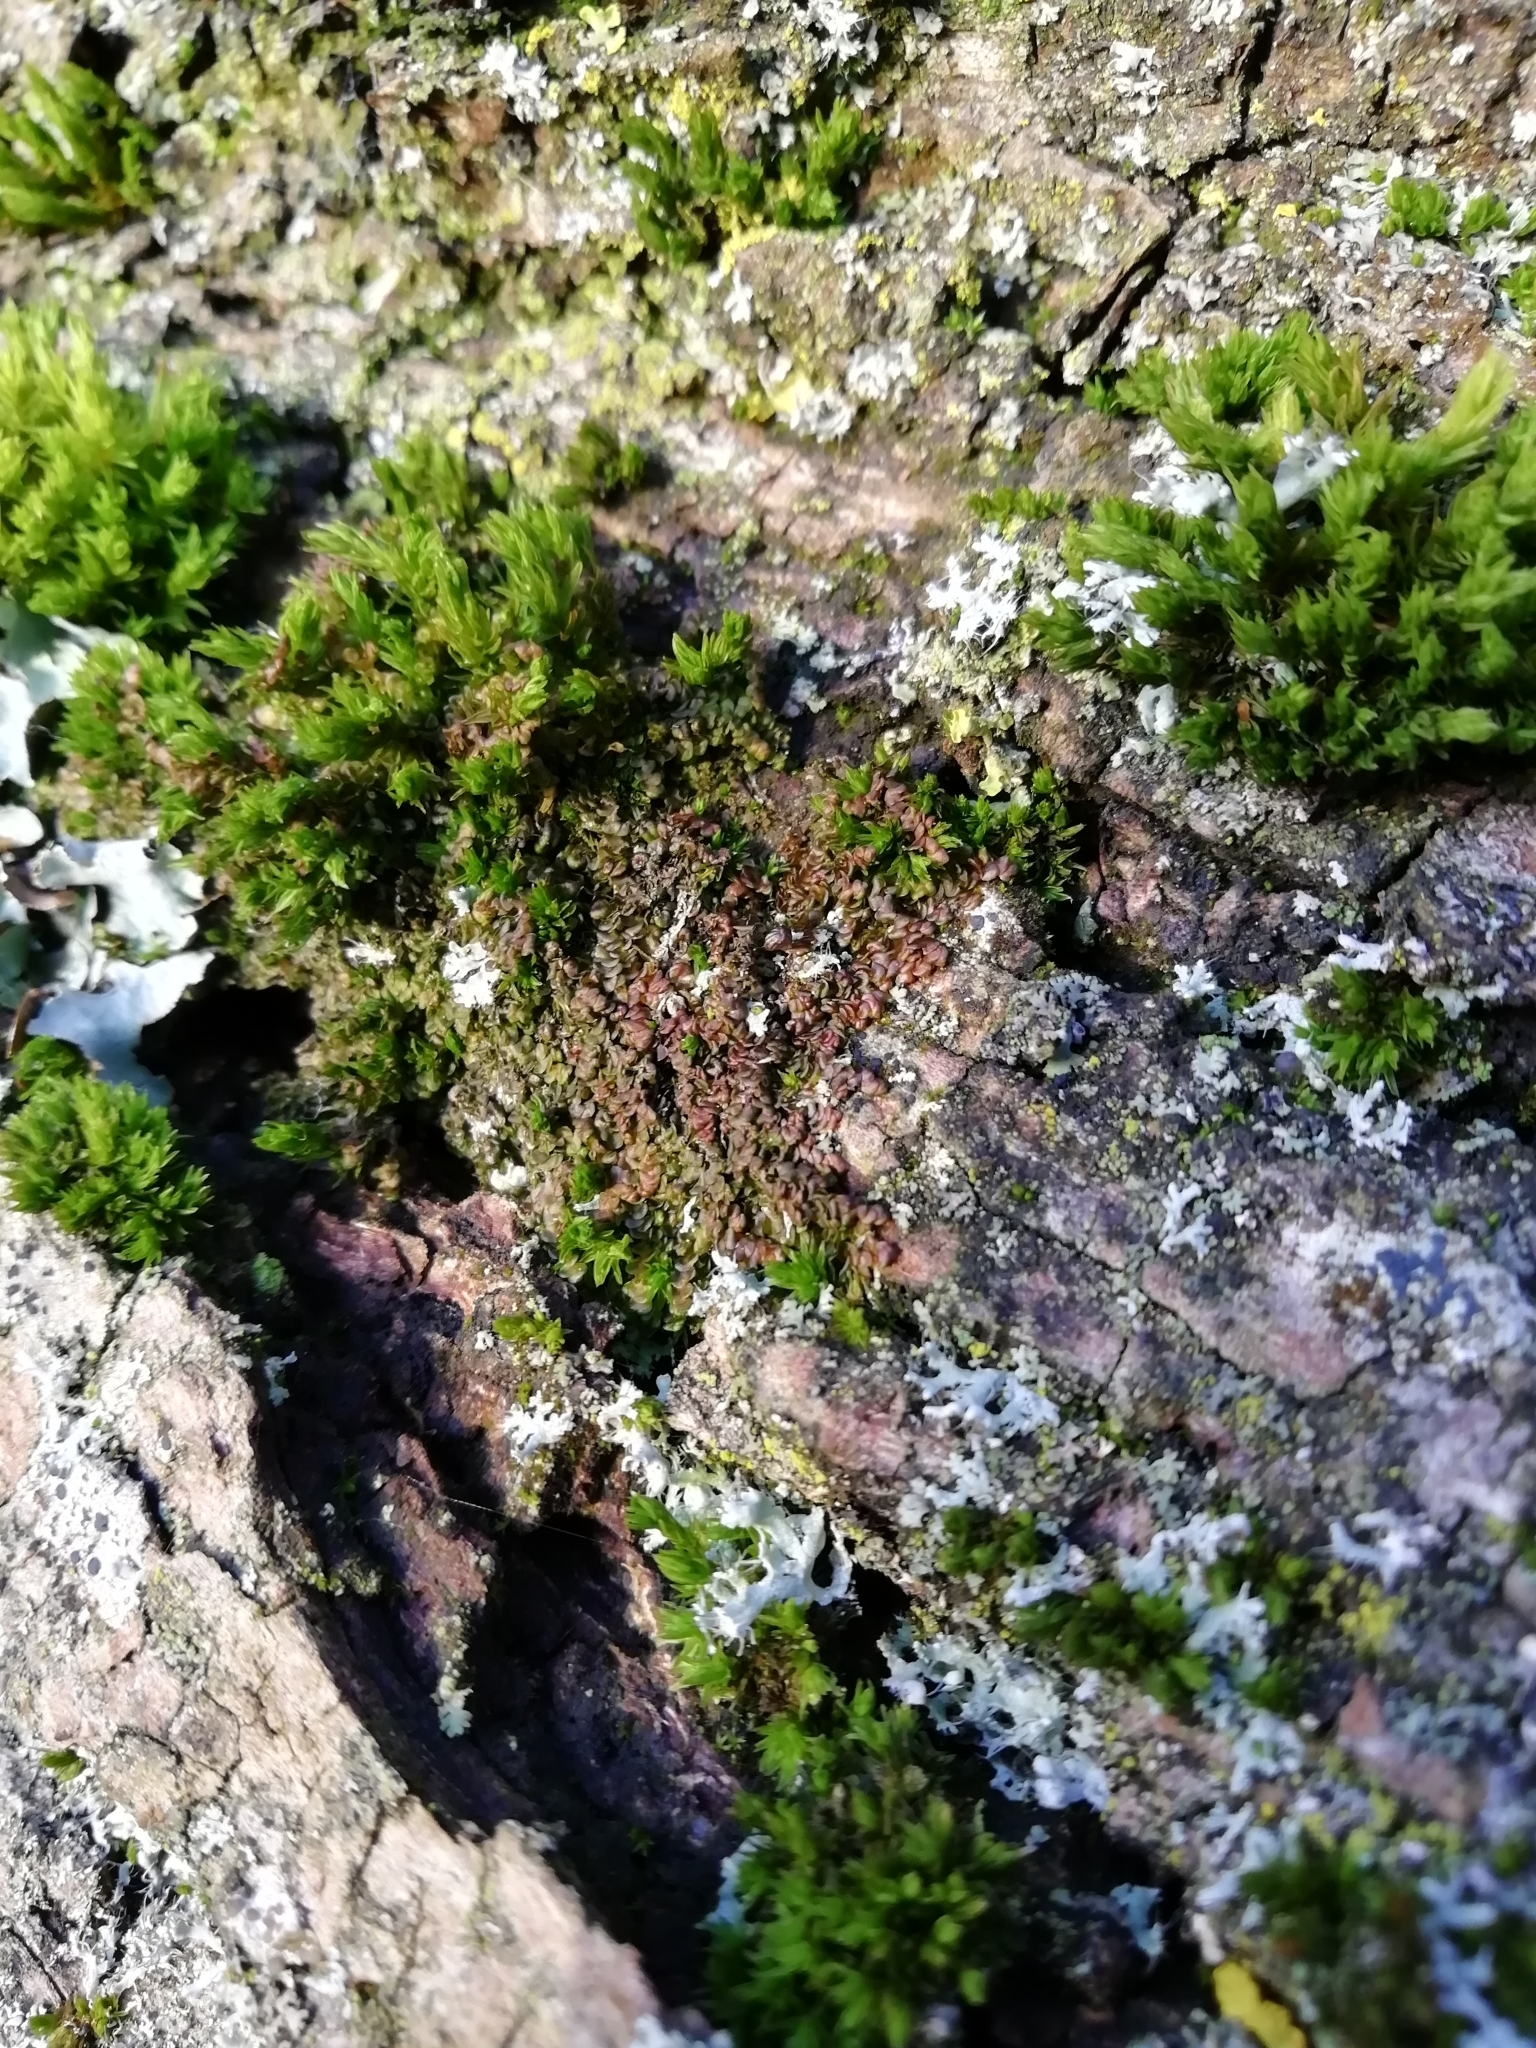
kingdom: Plantae
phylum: Marchantiophyta
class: Jungermanniopsida
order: Porellales
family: Frullaniaceae
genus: Frullania
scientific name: Frullania dilatata
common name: Dilated scalewort
